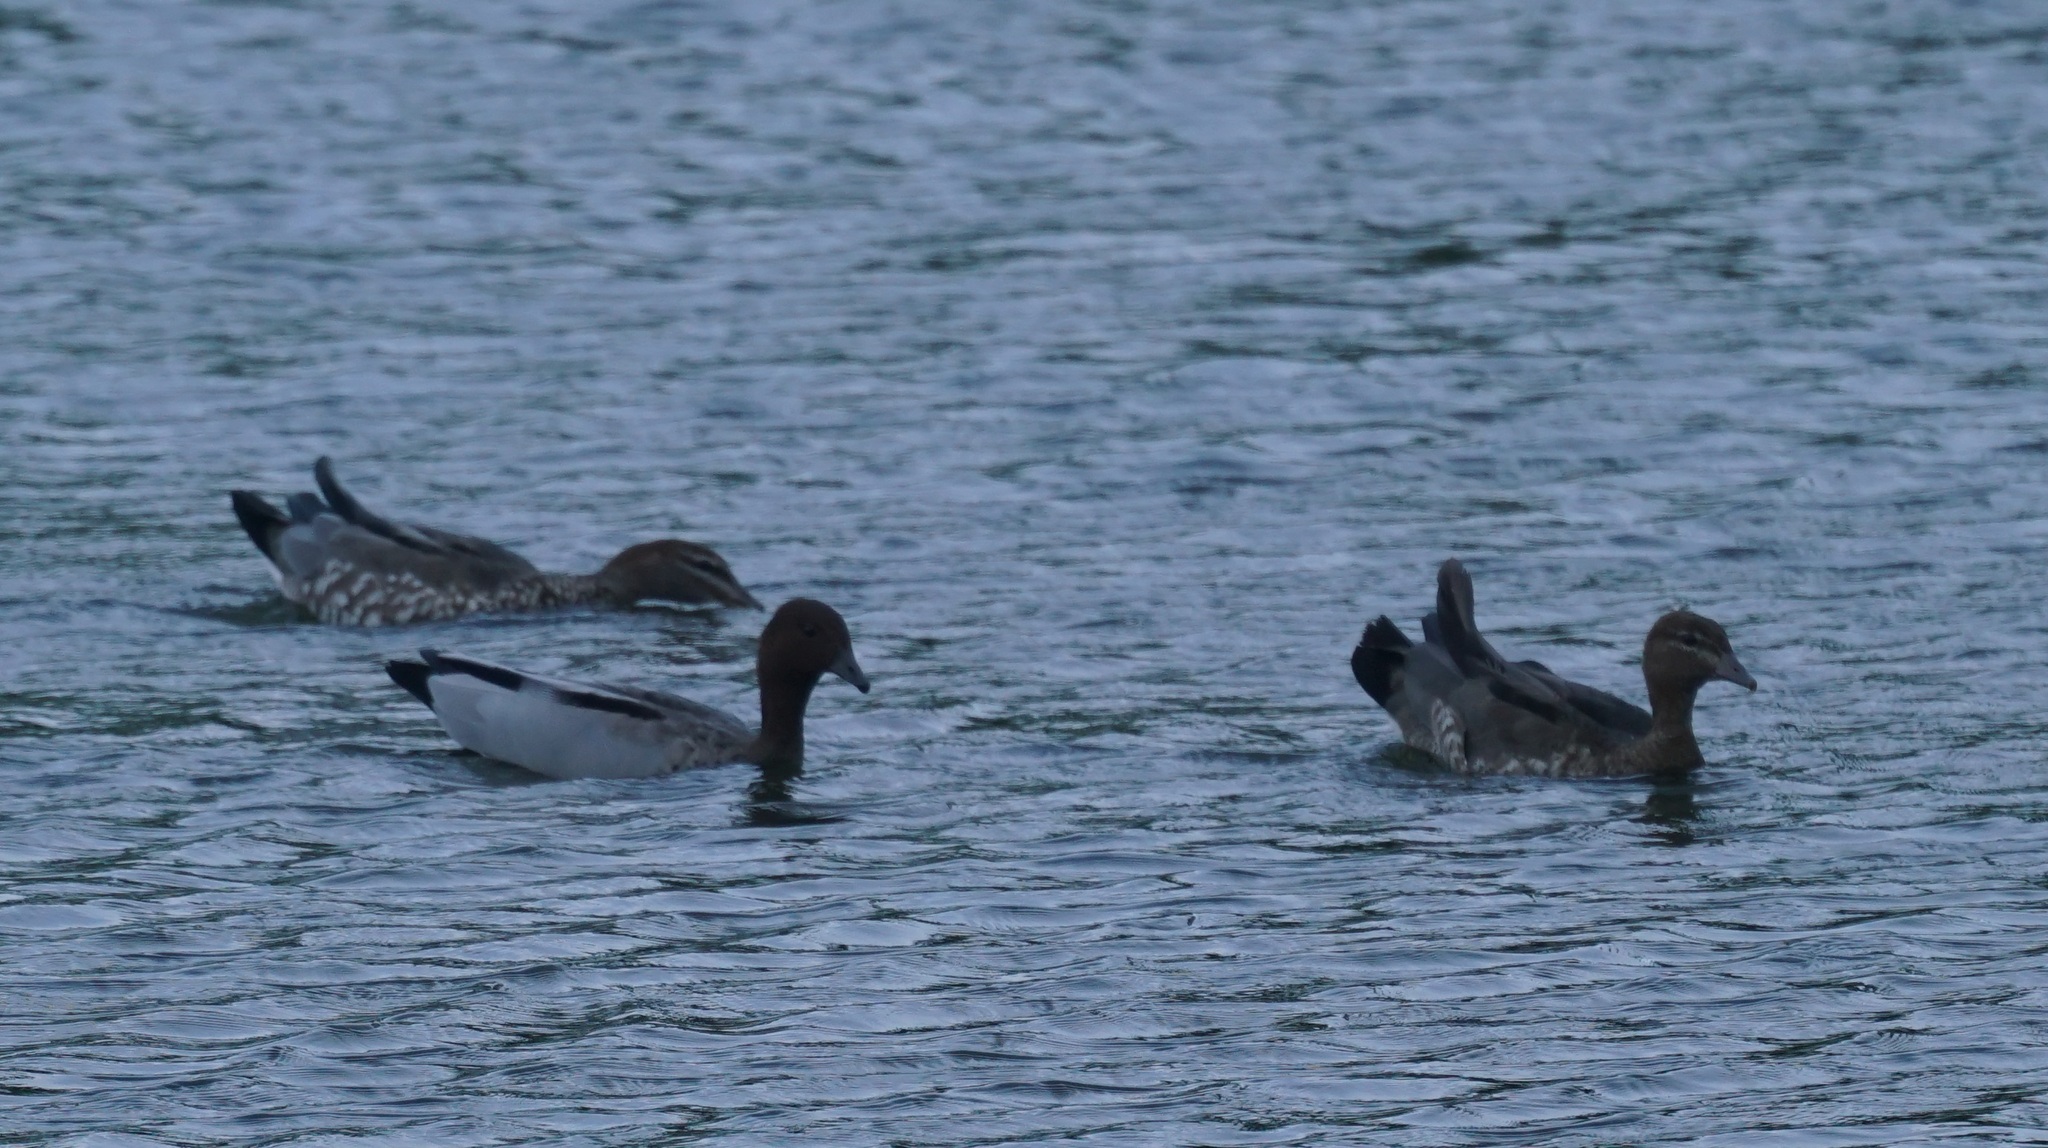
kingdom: Animalia
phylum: Chordata
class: Aves
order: Anseriformes
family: Anatidae
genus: Chenonetta
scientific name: Chenonetta jubata
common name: Maned duck
